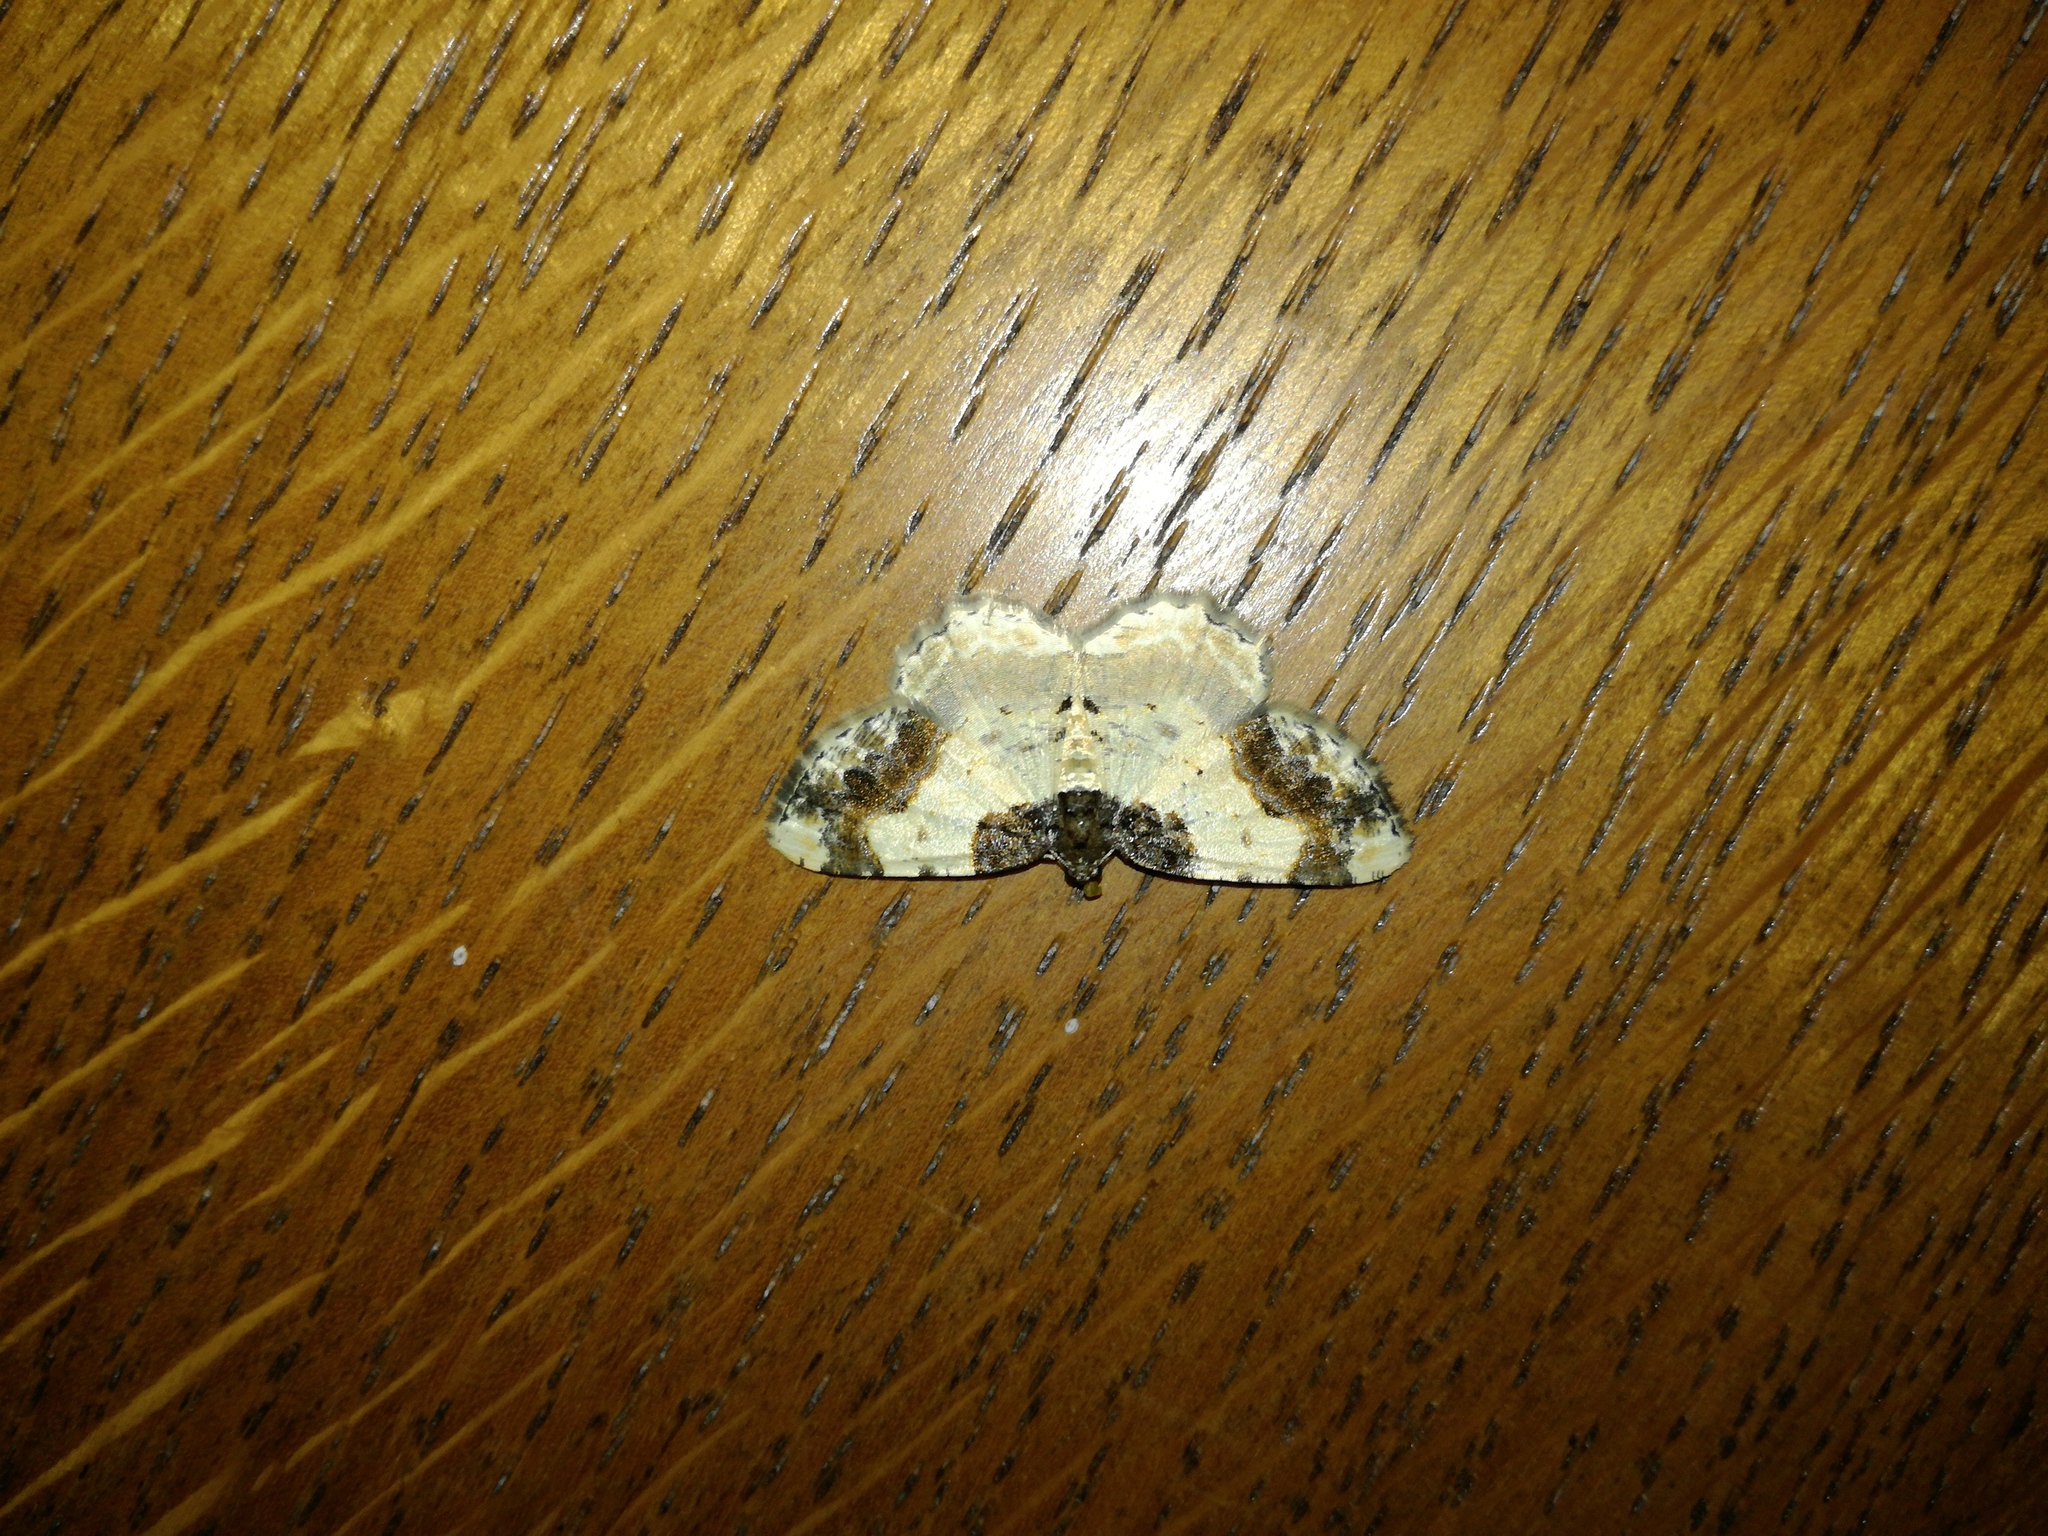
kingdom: Animalia
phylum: Arthropoda
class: Insecta
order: Lepidoptera
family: Geometridae
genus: Ligdia
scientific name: Ligdia adustata
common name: Scorched carpet
